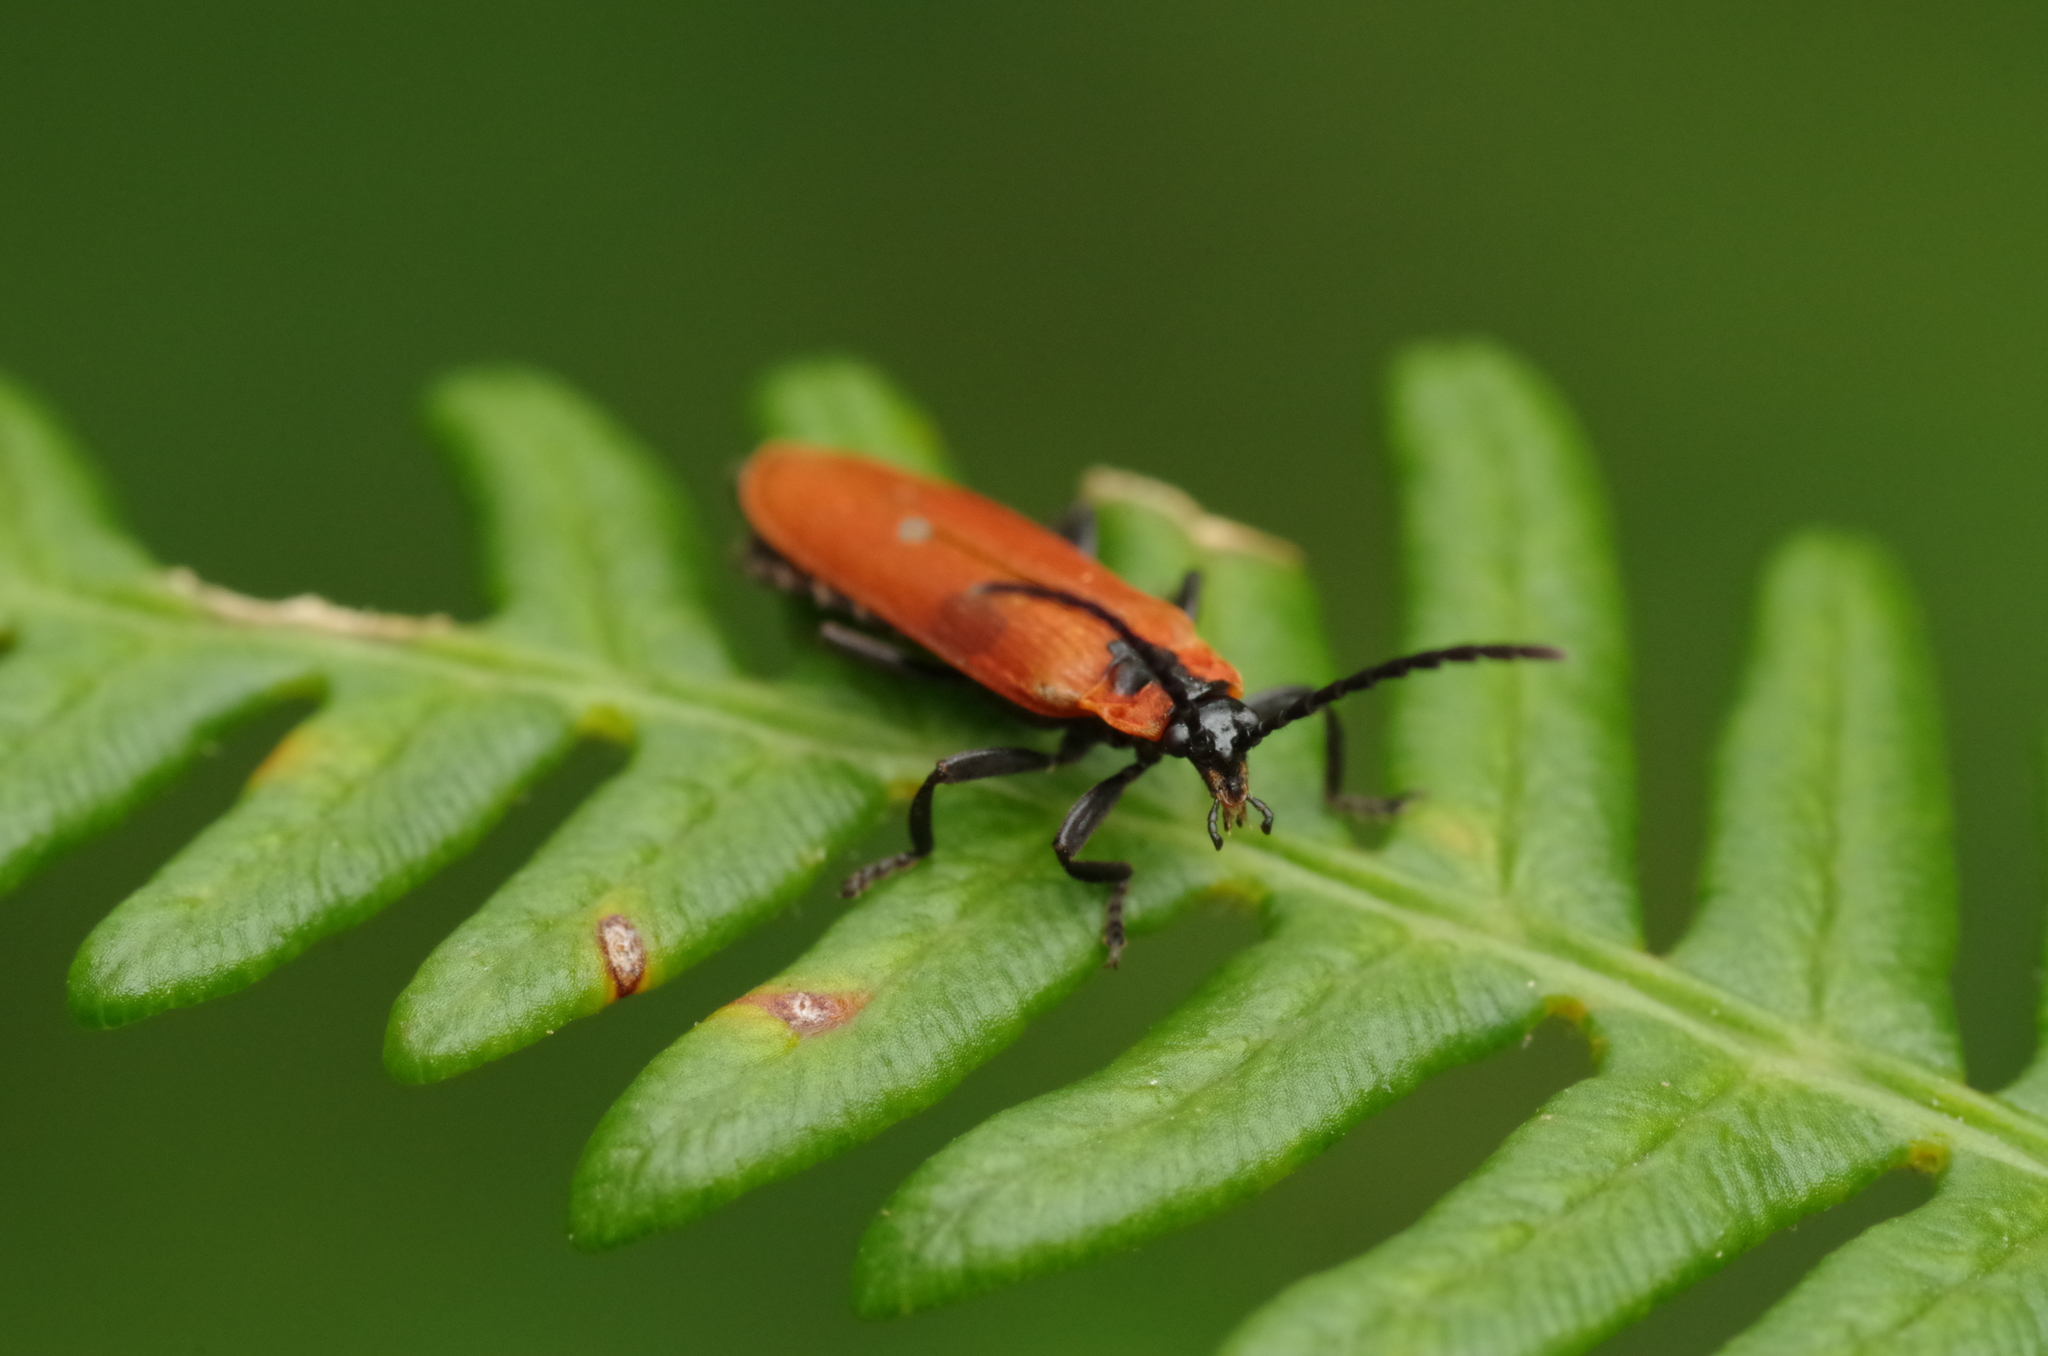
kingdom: Animalia
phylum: Arthropoda
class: Insecta
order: Coleoptera
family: Lycidae
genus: Lygistopterus
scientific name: Lygistopterus sanguineus
